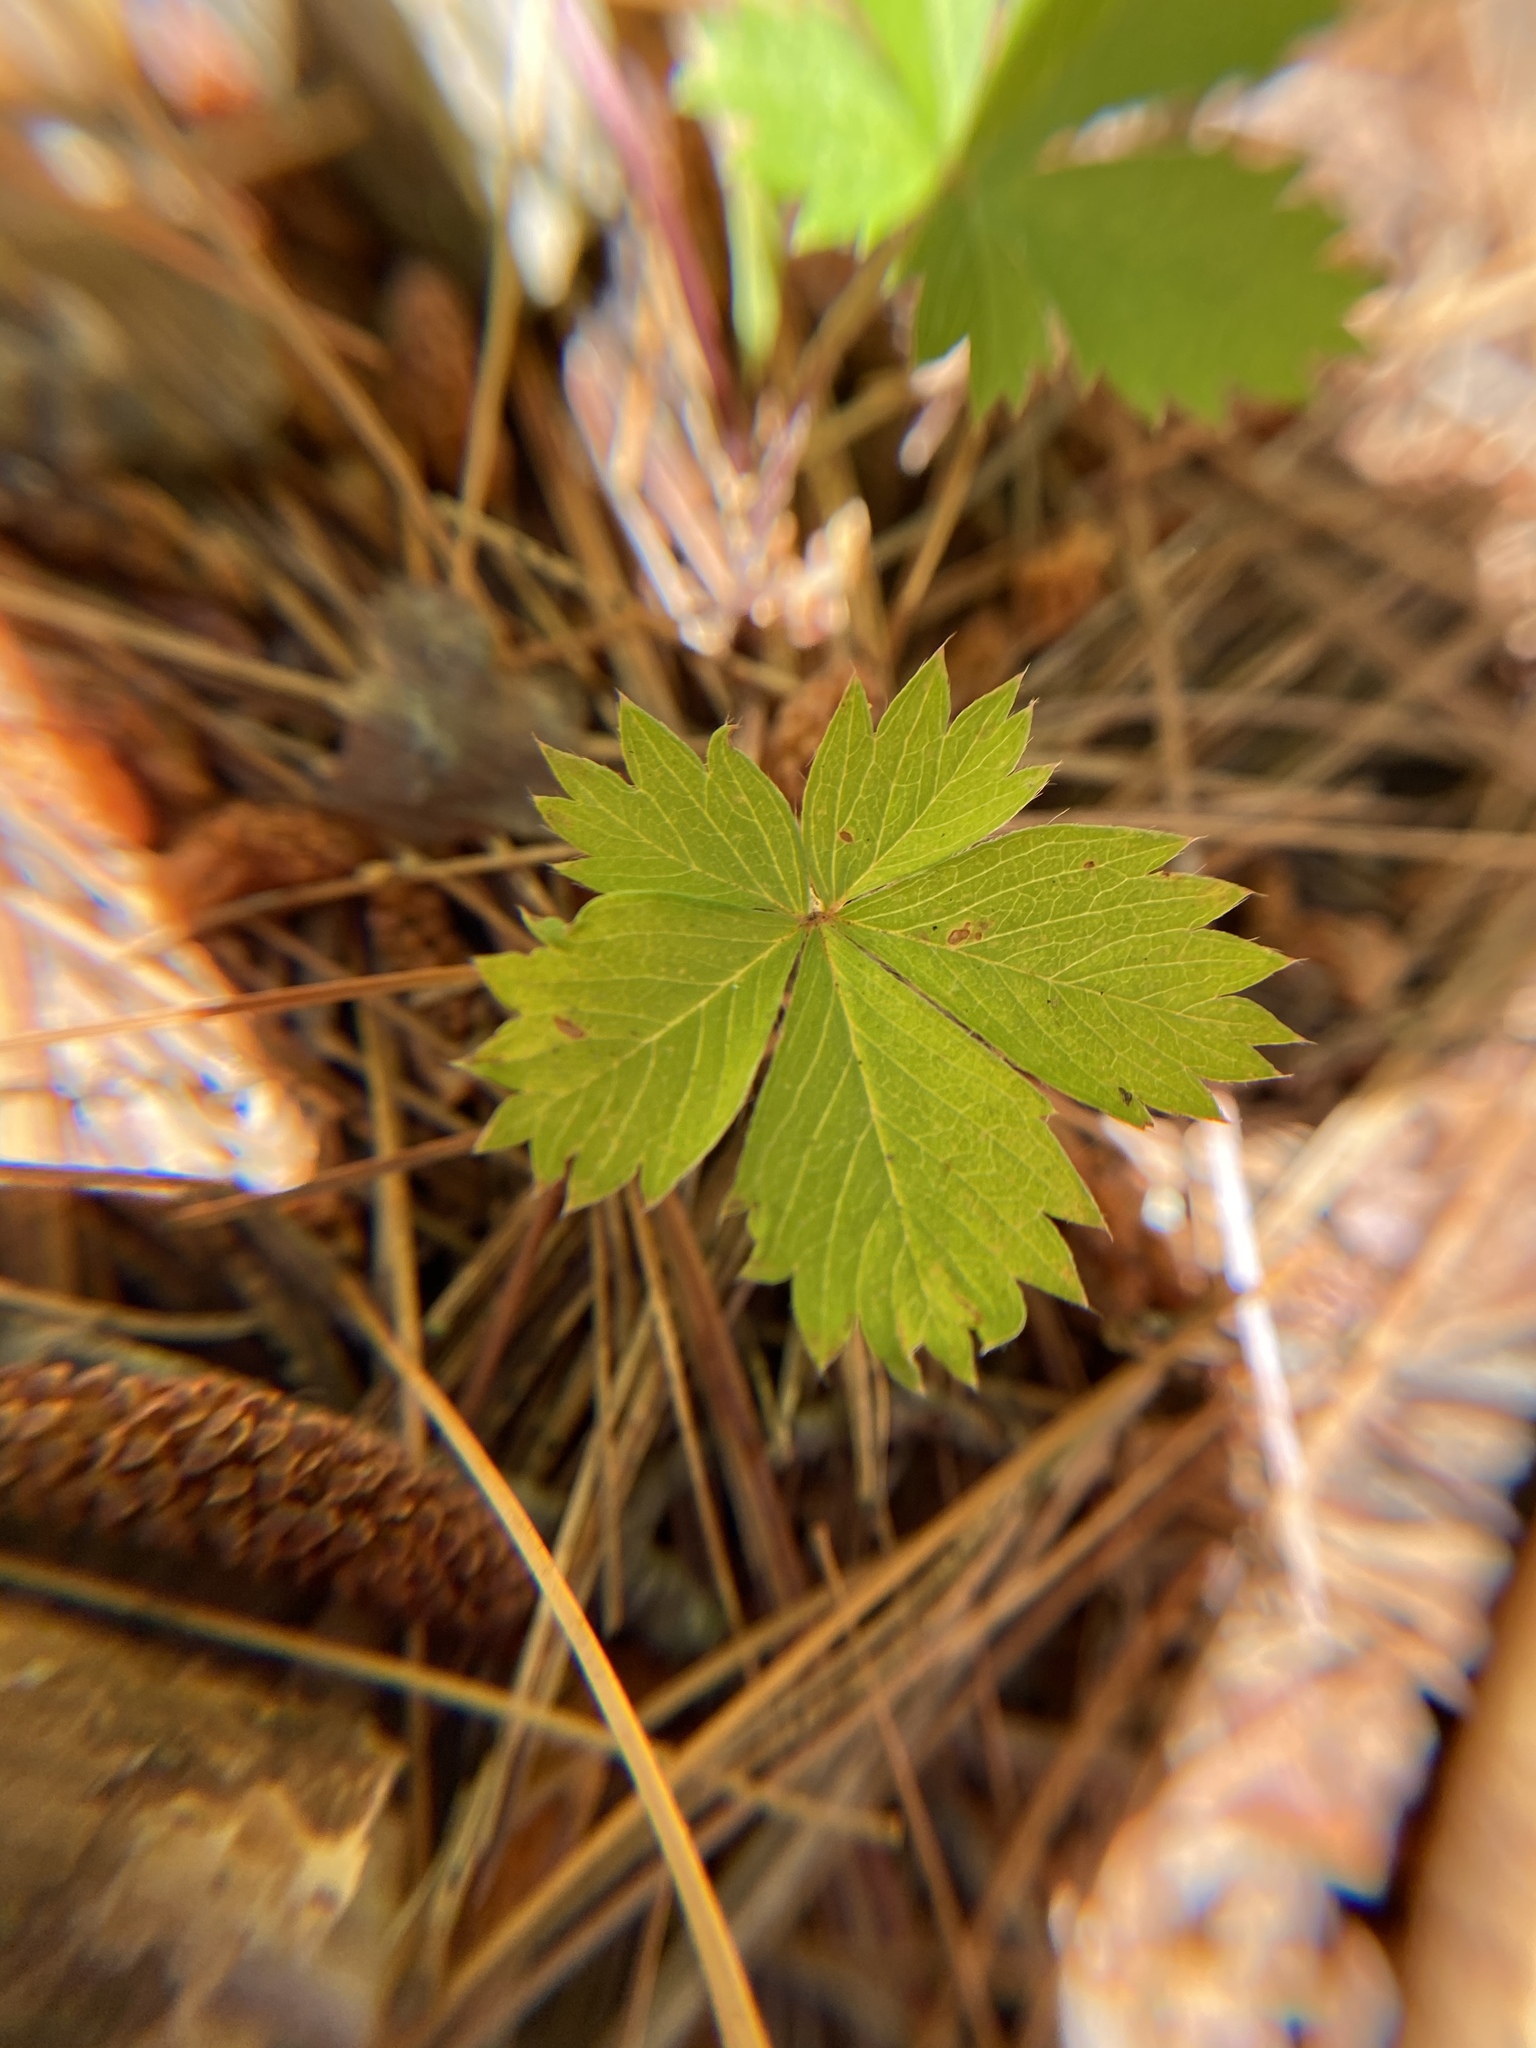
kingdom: Plantae
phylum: Tracheophyta
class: Magnoliopsida
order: Rosales
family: Rosaceae
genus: Potentilla
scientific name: Potentilla canadensis
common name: Canada cinquefoil
